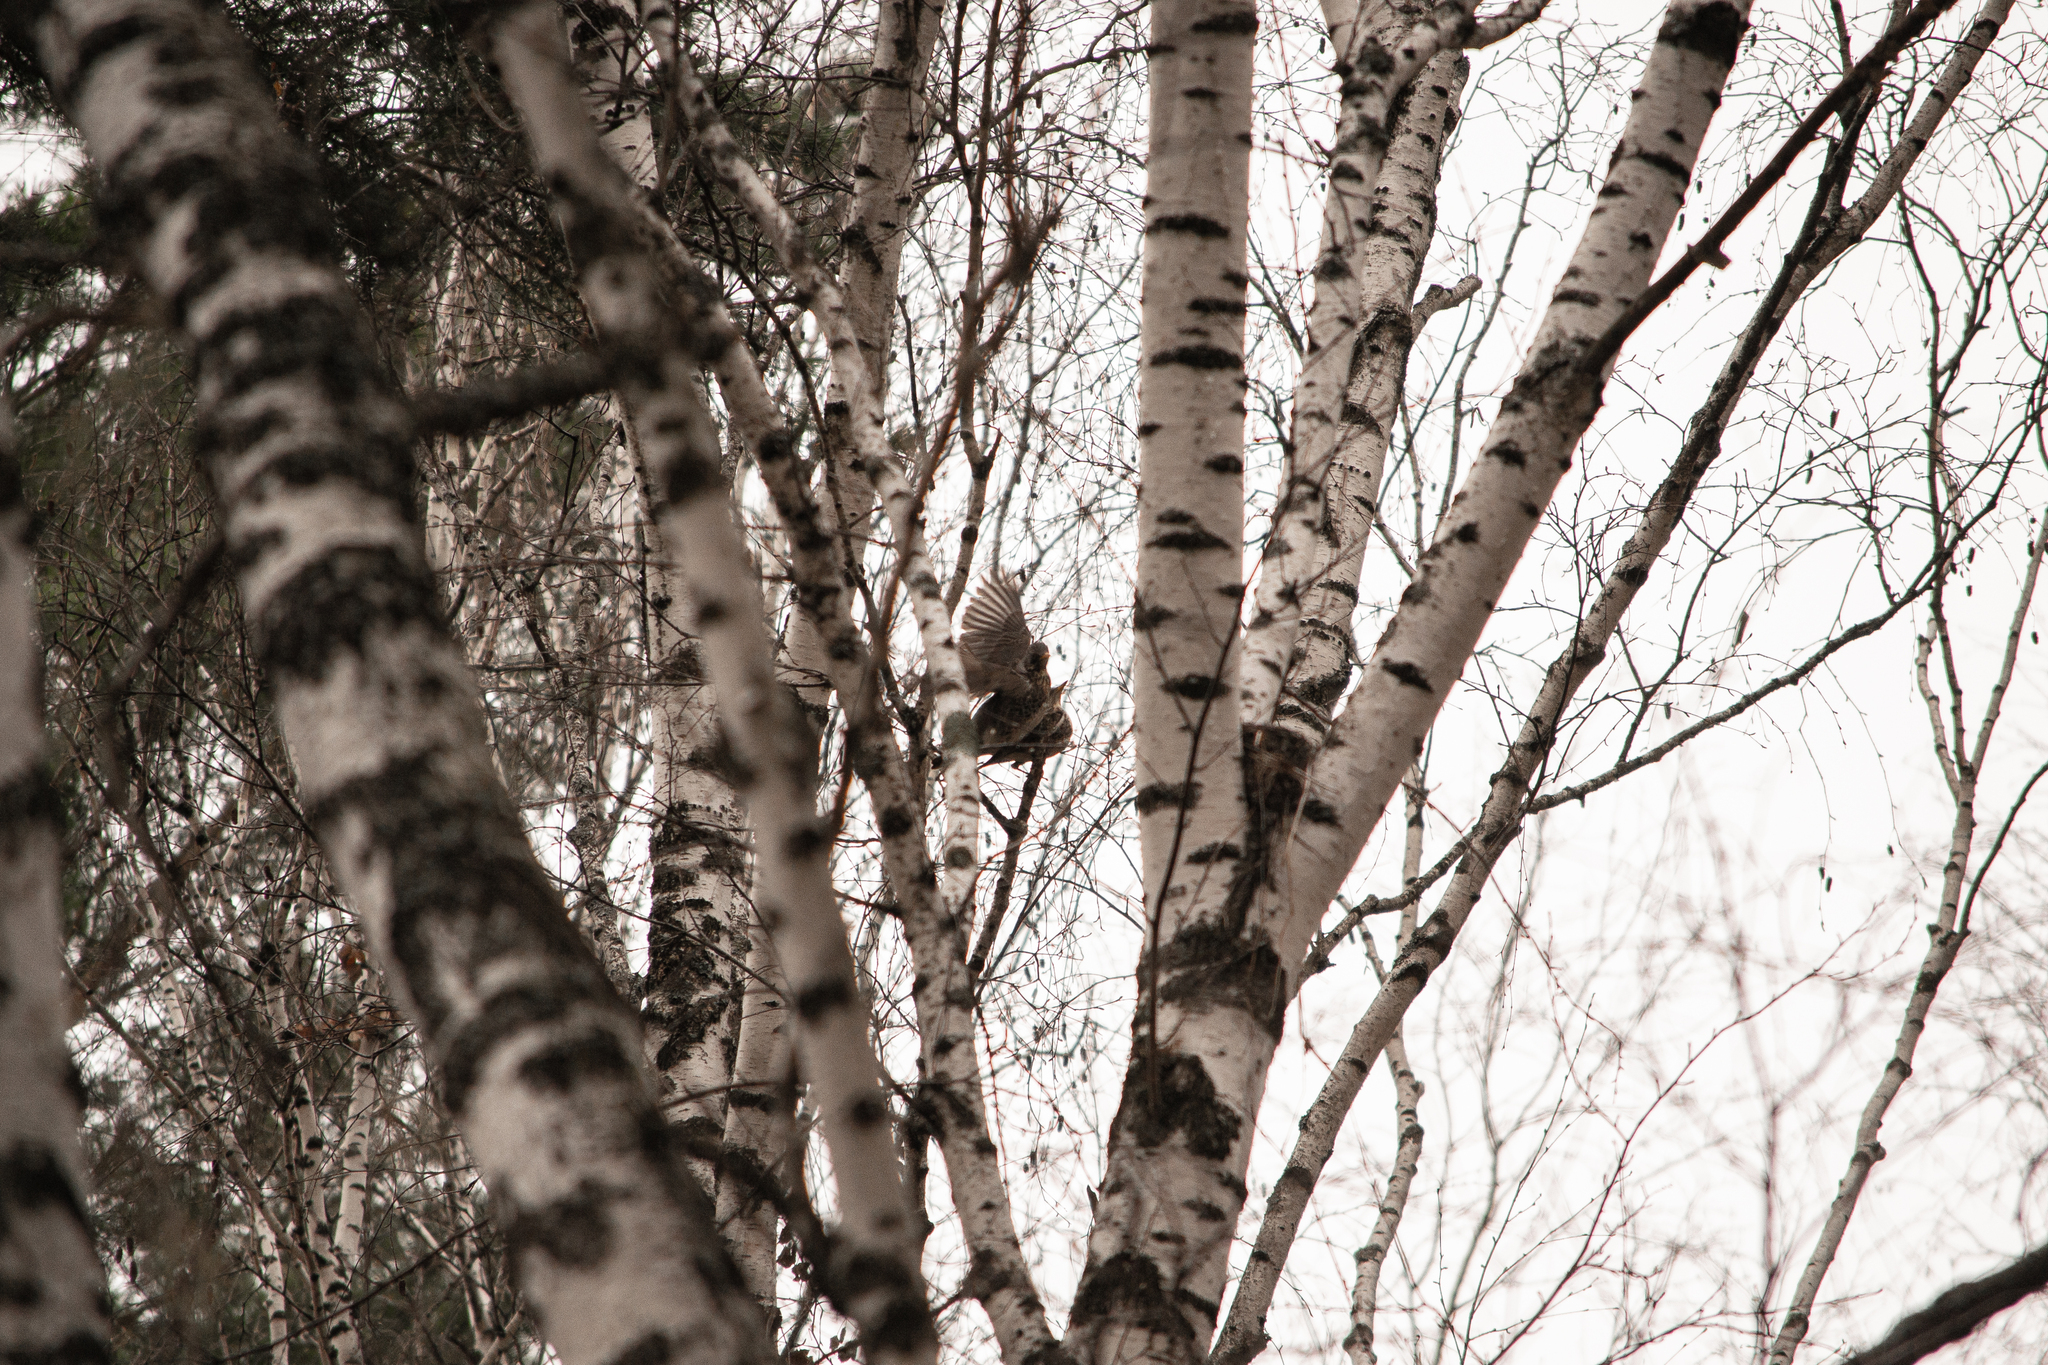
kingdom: Animalia
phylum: Chordata
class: Aves
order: Passeriformes
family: Turdidae
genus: Turdus
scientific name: Turdus pilaris
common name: Fieldfare
